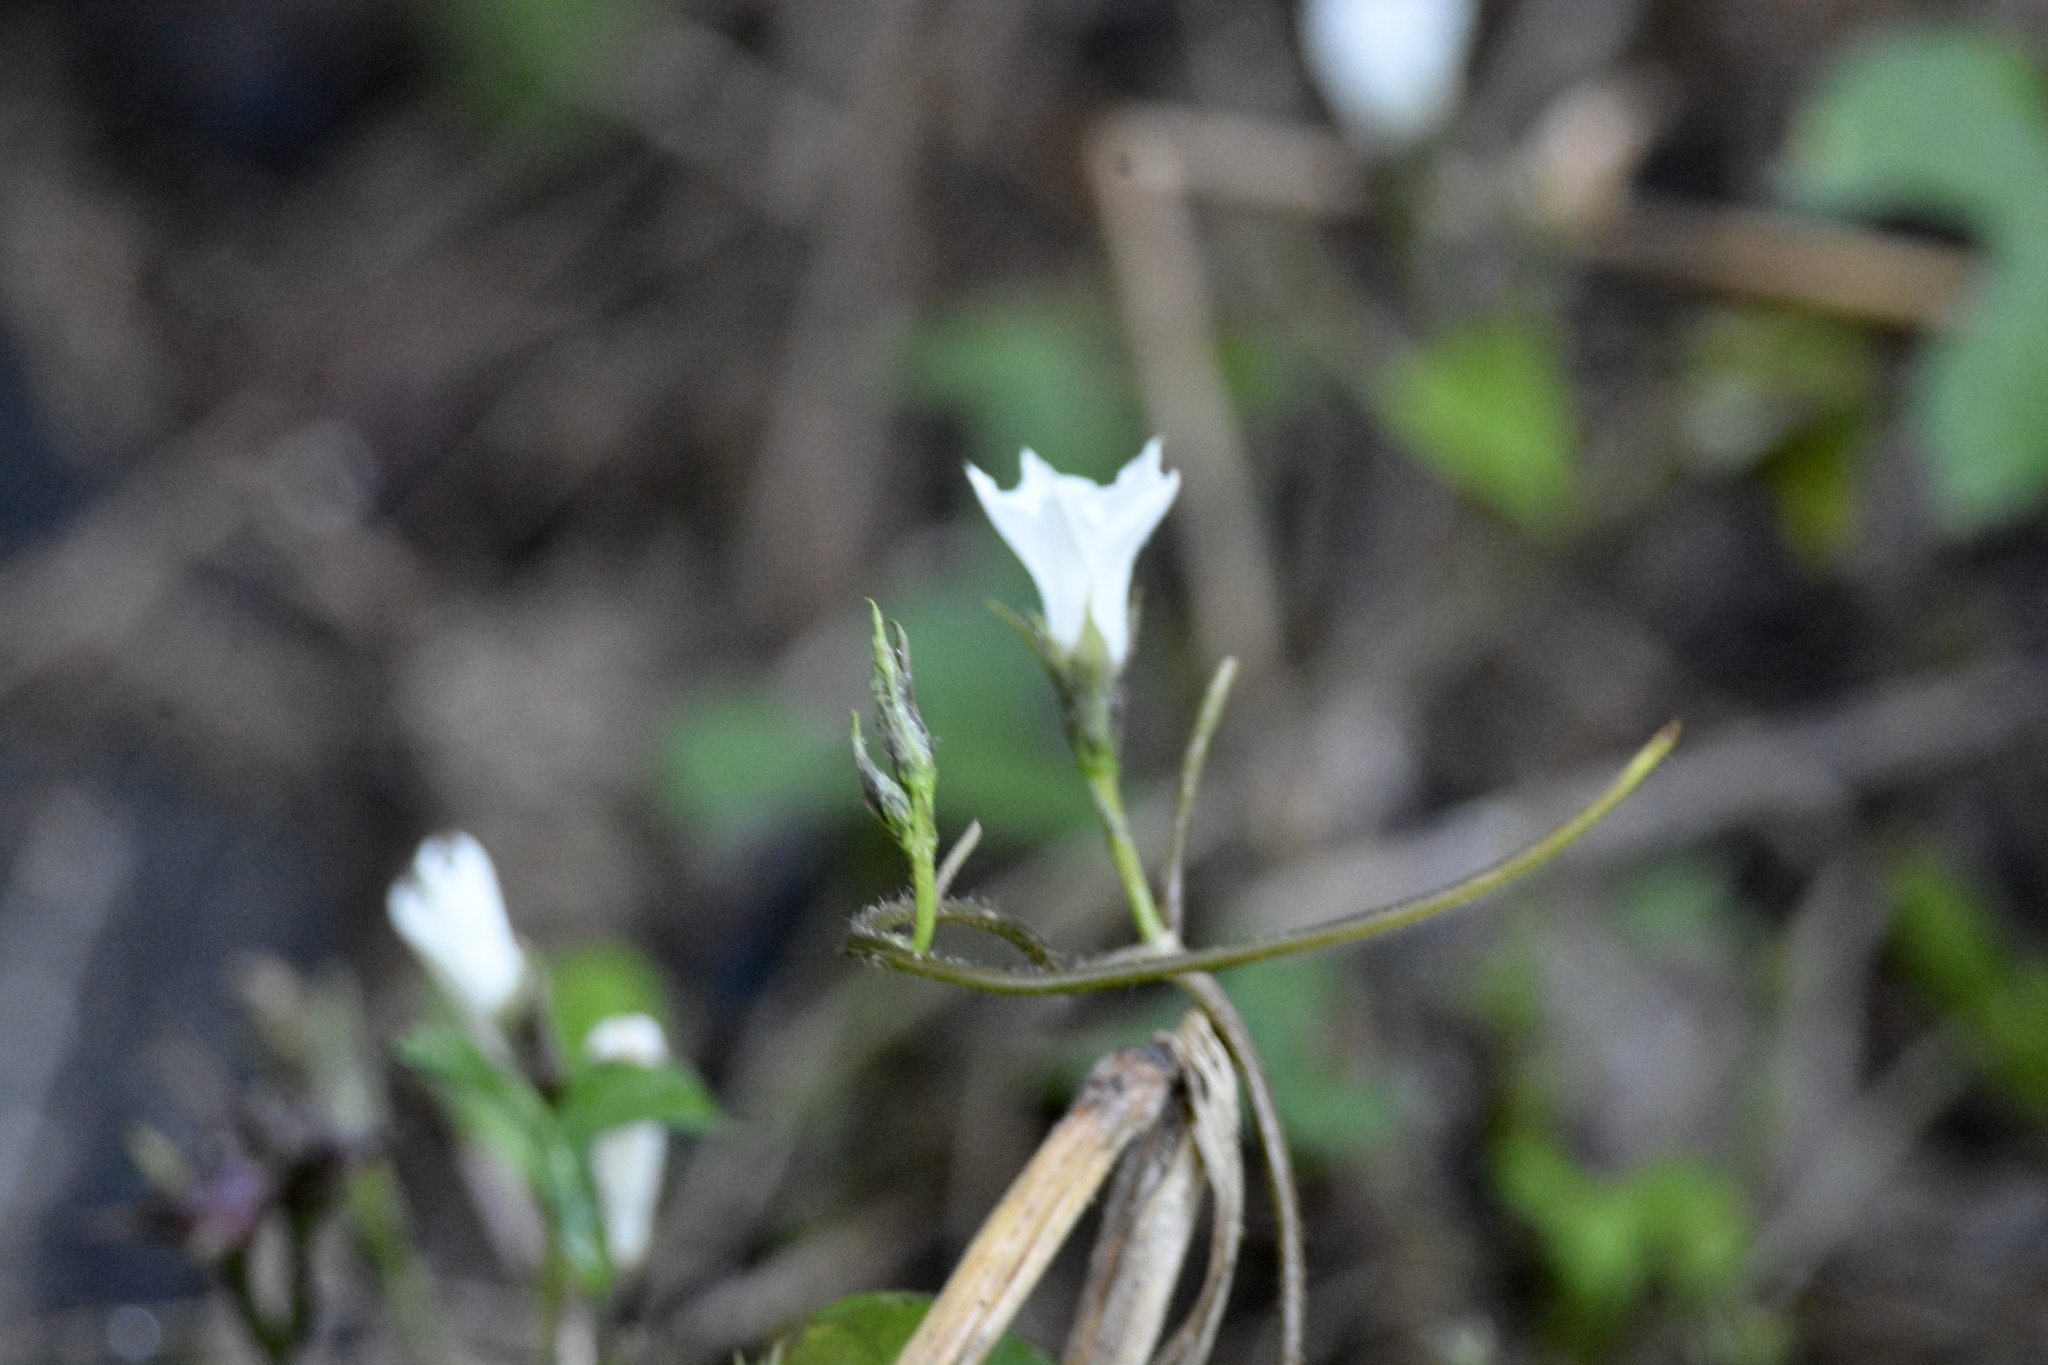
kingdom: Plantae
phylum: Tracheophyta
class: Magnoliopsida
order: Solanales
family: Convolvulaceae
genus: Ipomoea
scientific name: Ipomoea lacunosa
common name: White morning-glory
